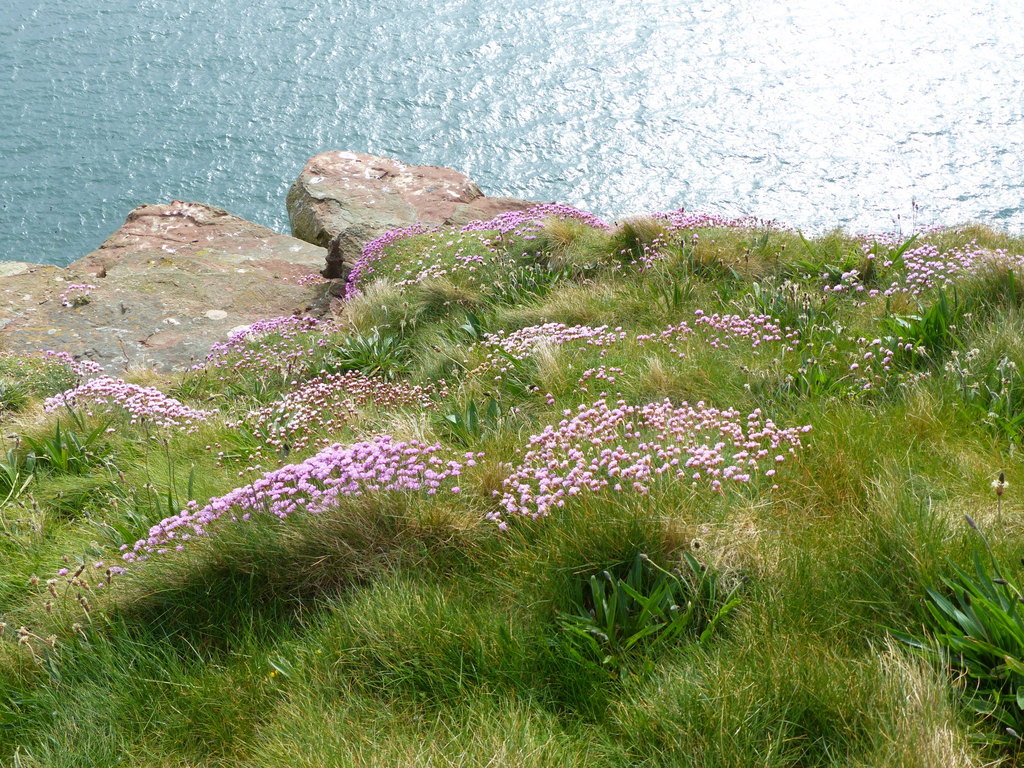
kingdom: Plantae
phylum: Tracheophyta
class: Magnoliopsida
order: Caryophyllales
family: Plumbaginaceae
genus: Armeria
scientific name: Armeria maritima
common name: Thrift
